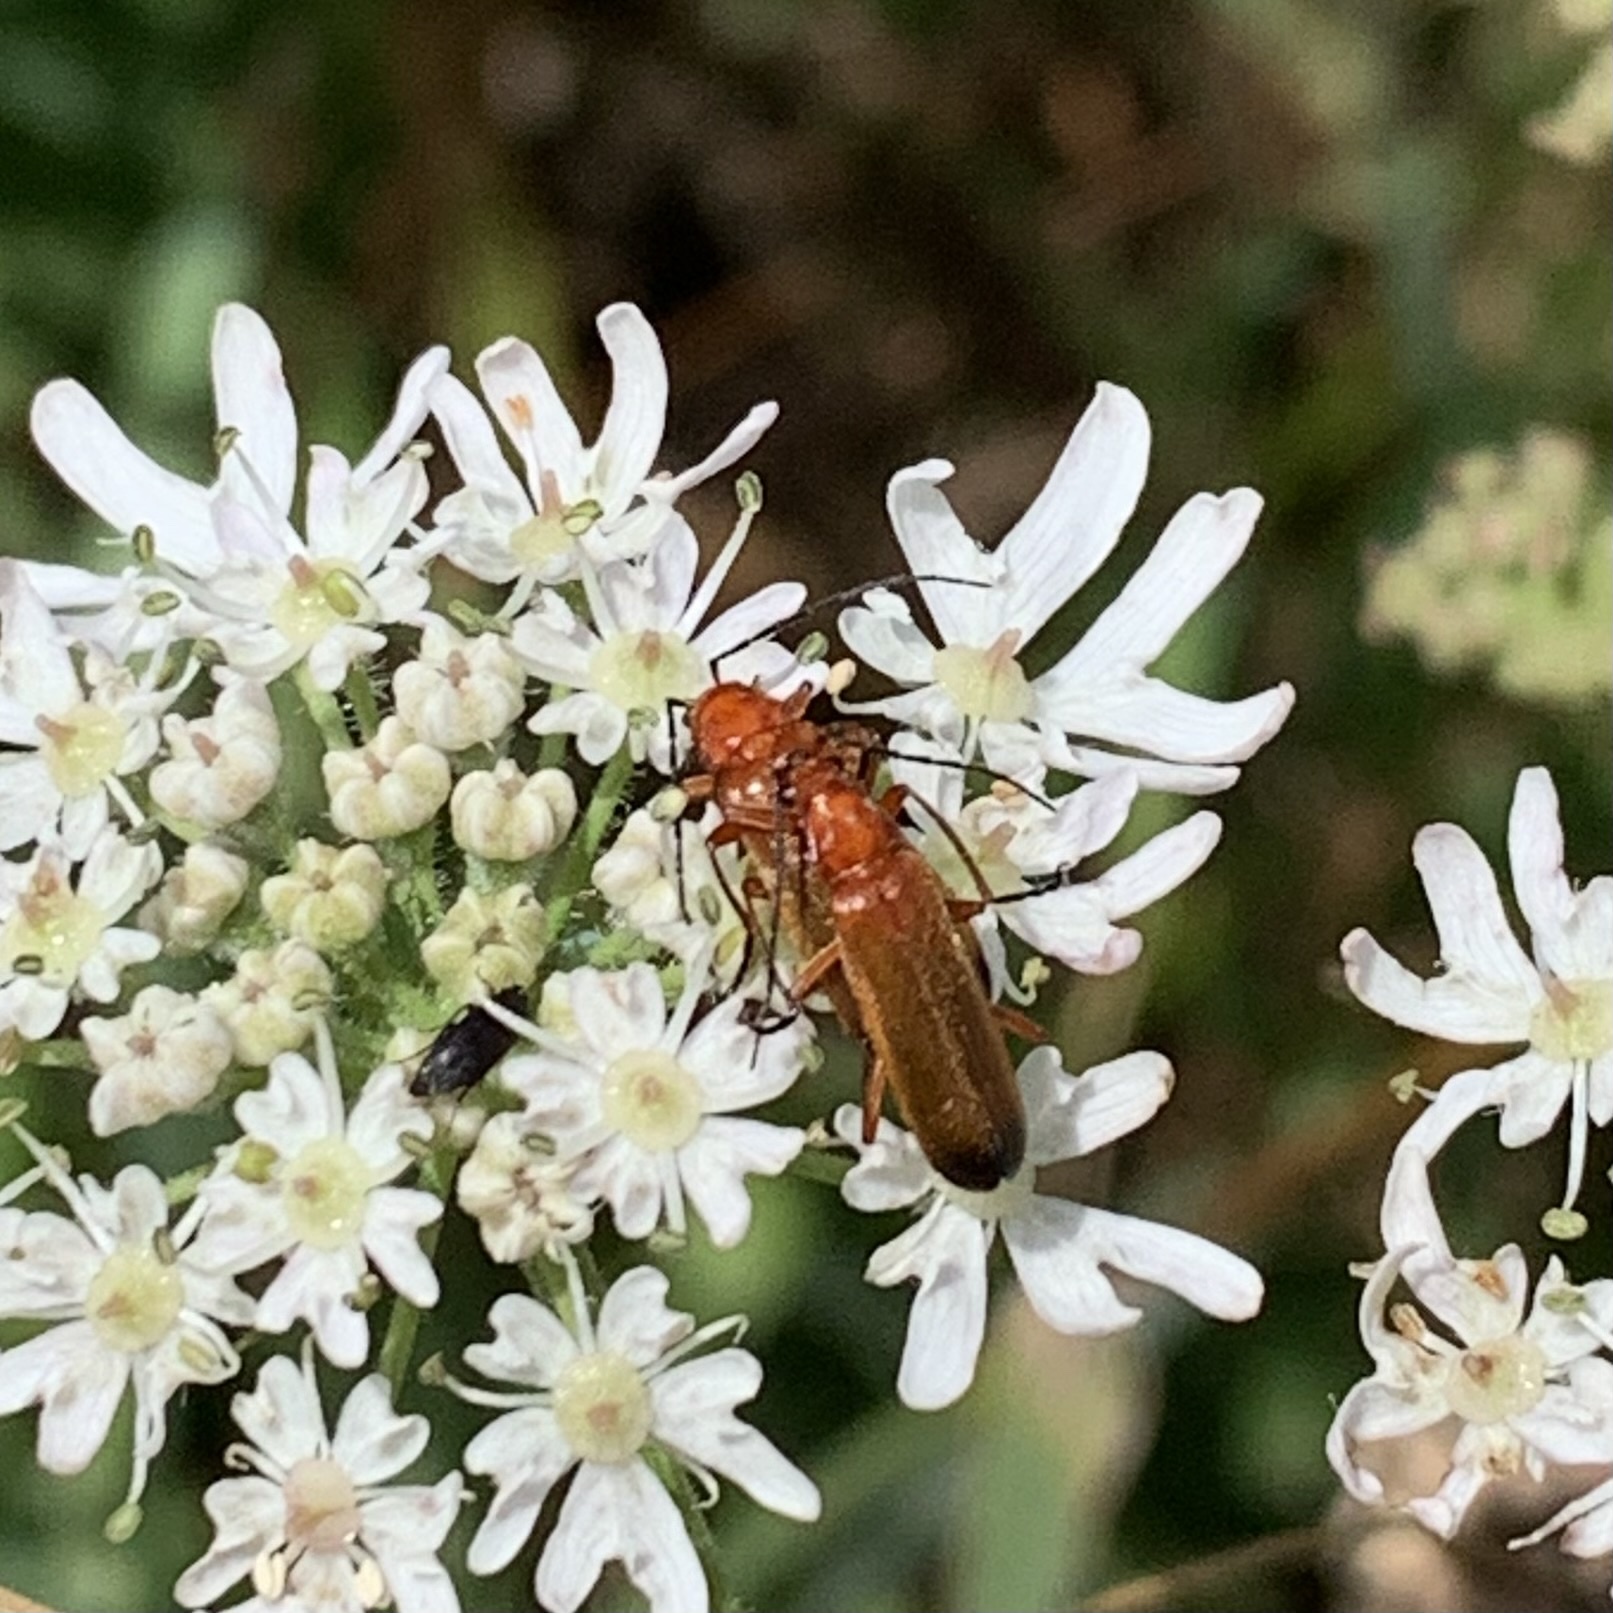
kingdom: Animalia
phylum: Arthropoda
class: Insecta
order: Coleoptera
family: Cantharidae
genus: Rhagonycha
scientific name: Rhagonycha fulva
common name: Common red soldier beetle
